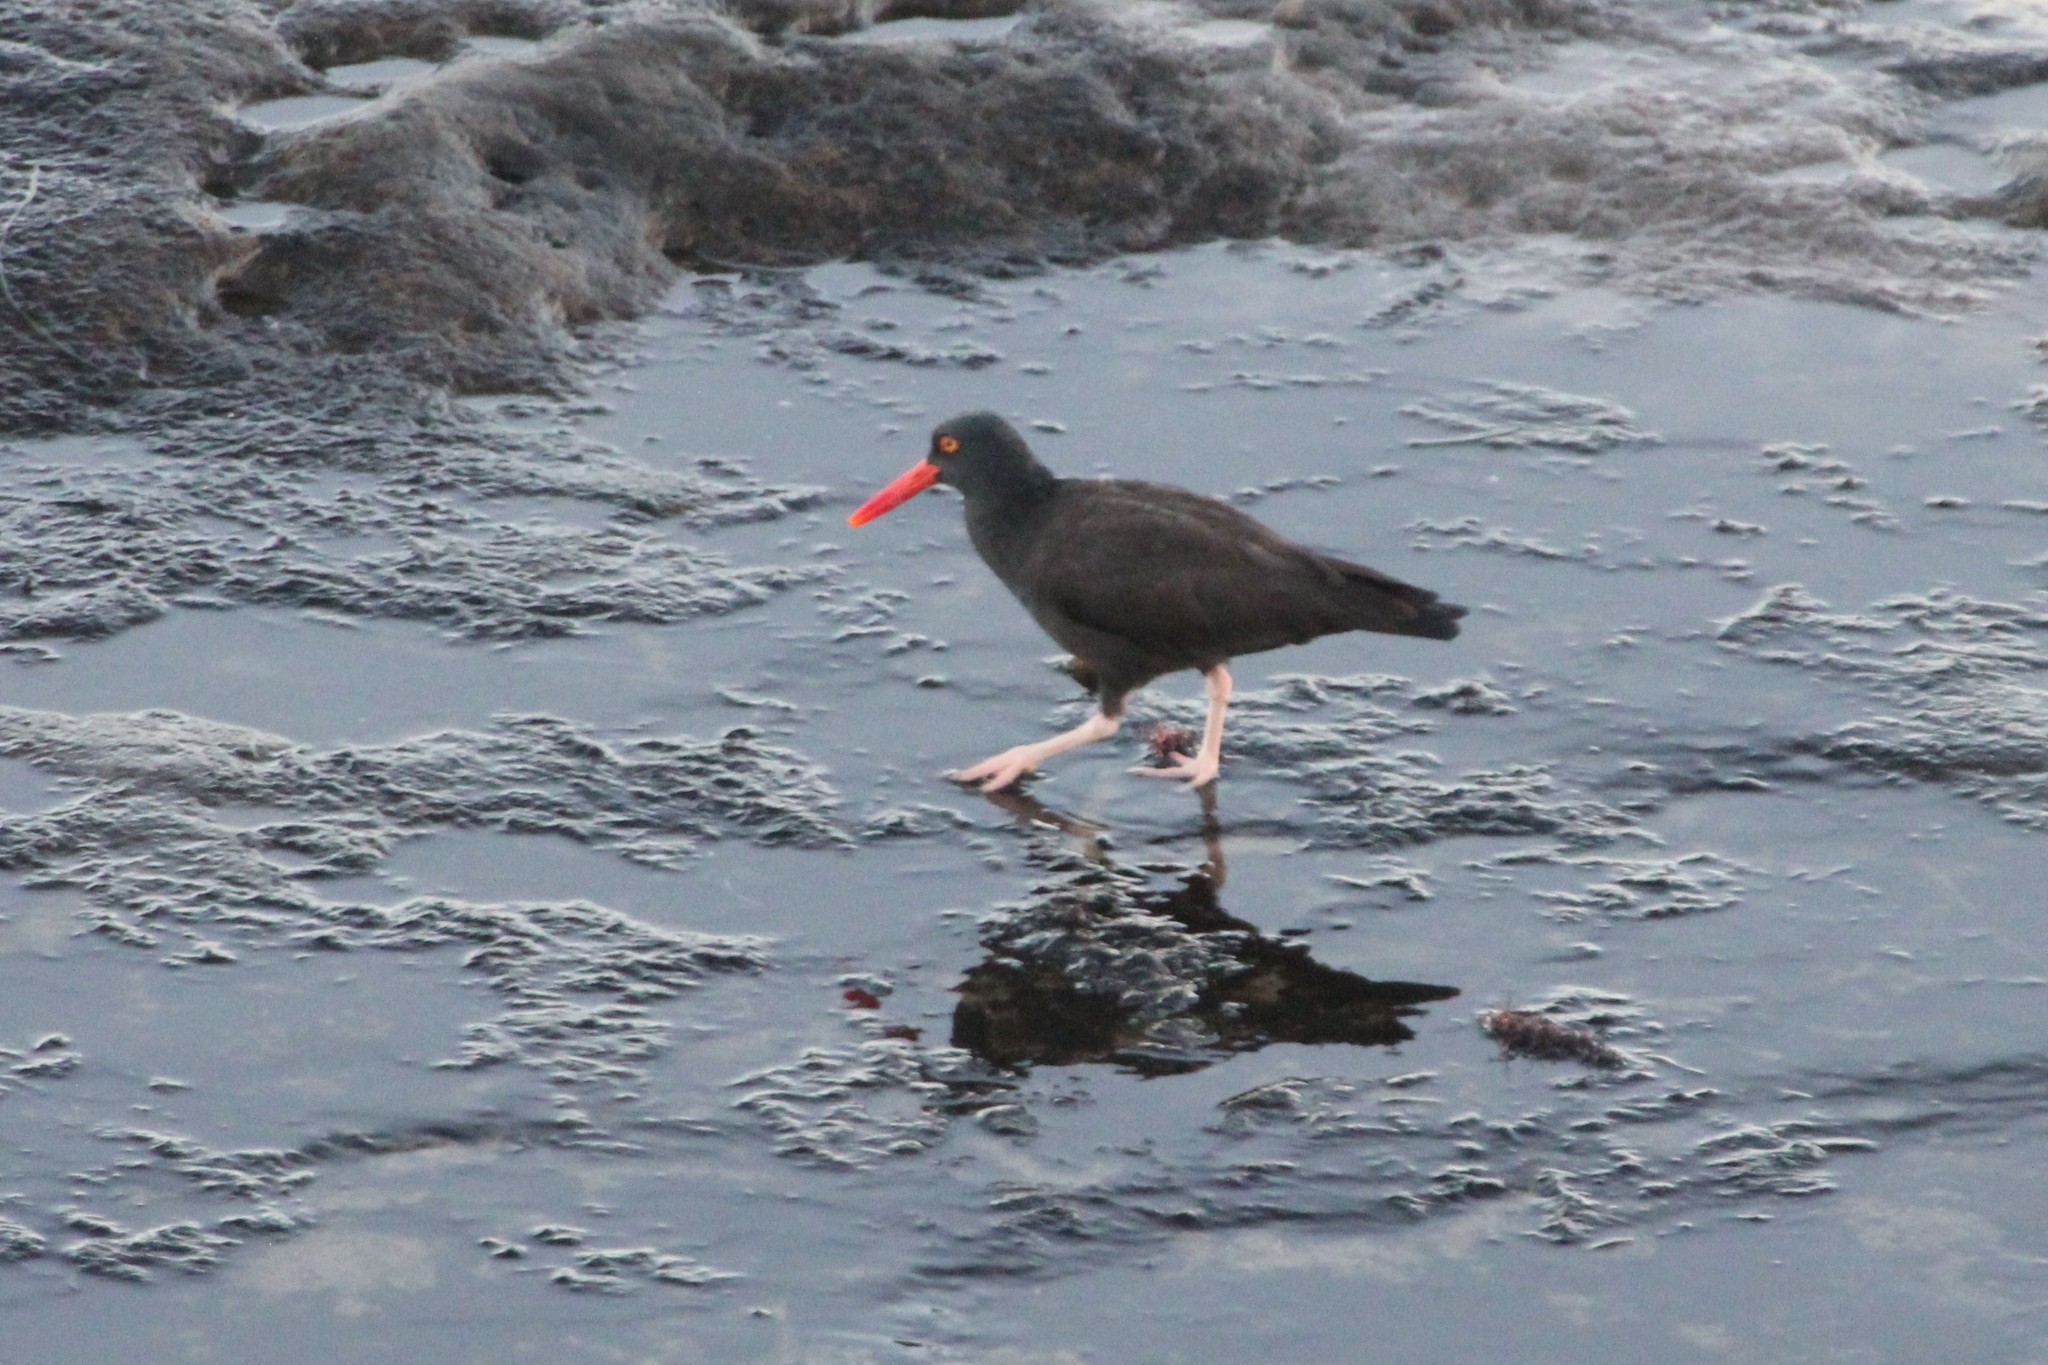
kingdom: Animalia
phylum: Chordata
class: Aves
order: Charadriiformes
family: Haematopodidae
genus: Haematopus
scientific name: Haematopus bachmani
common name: Black oystercatcher
